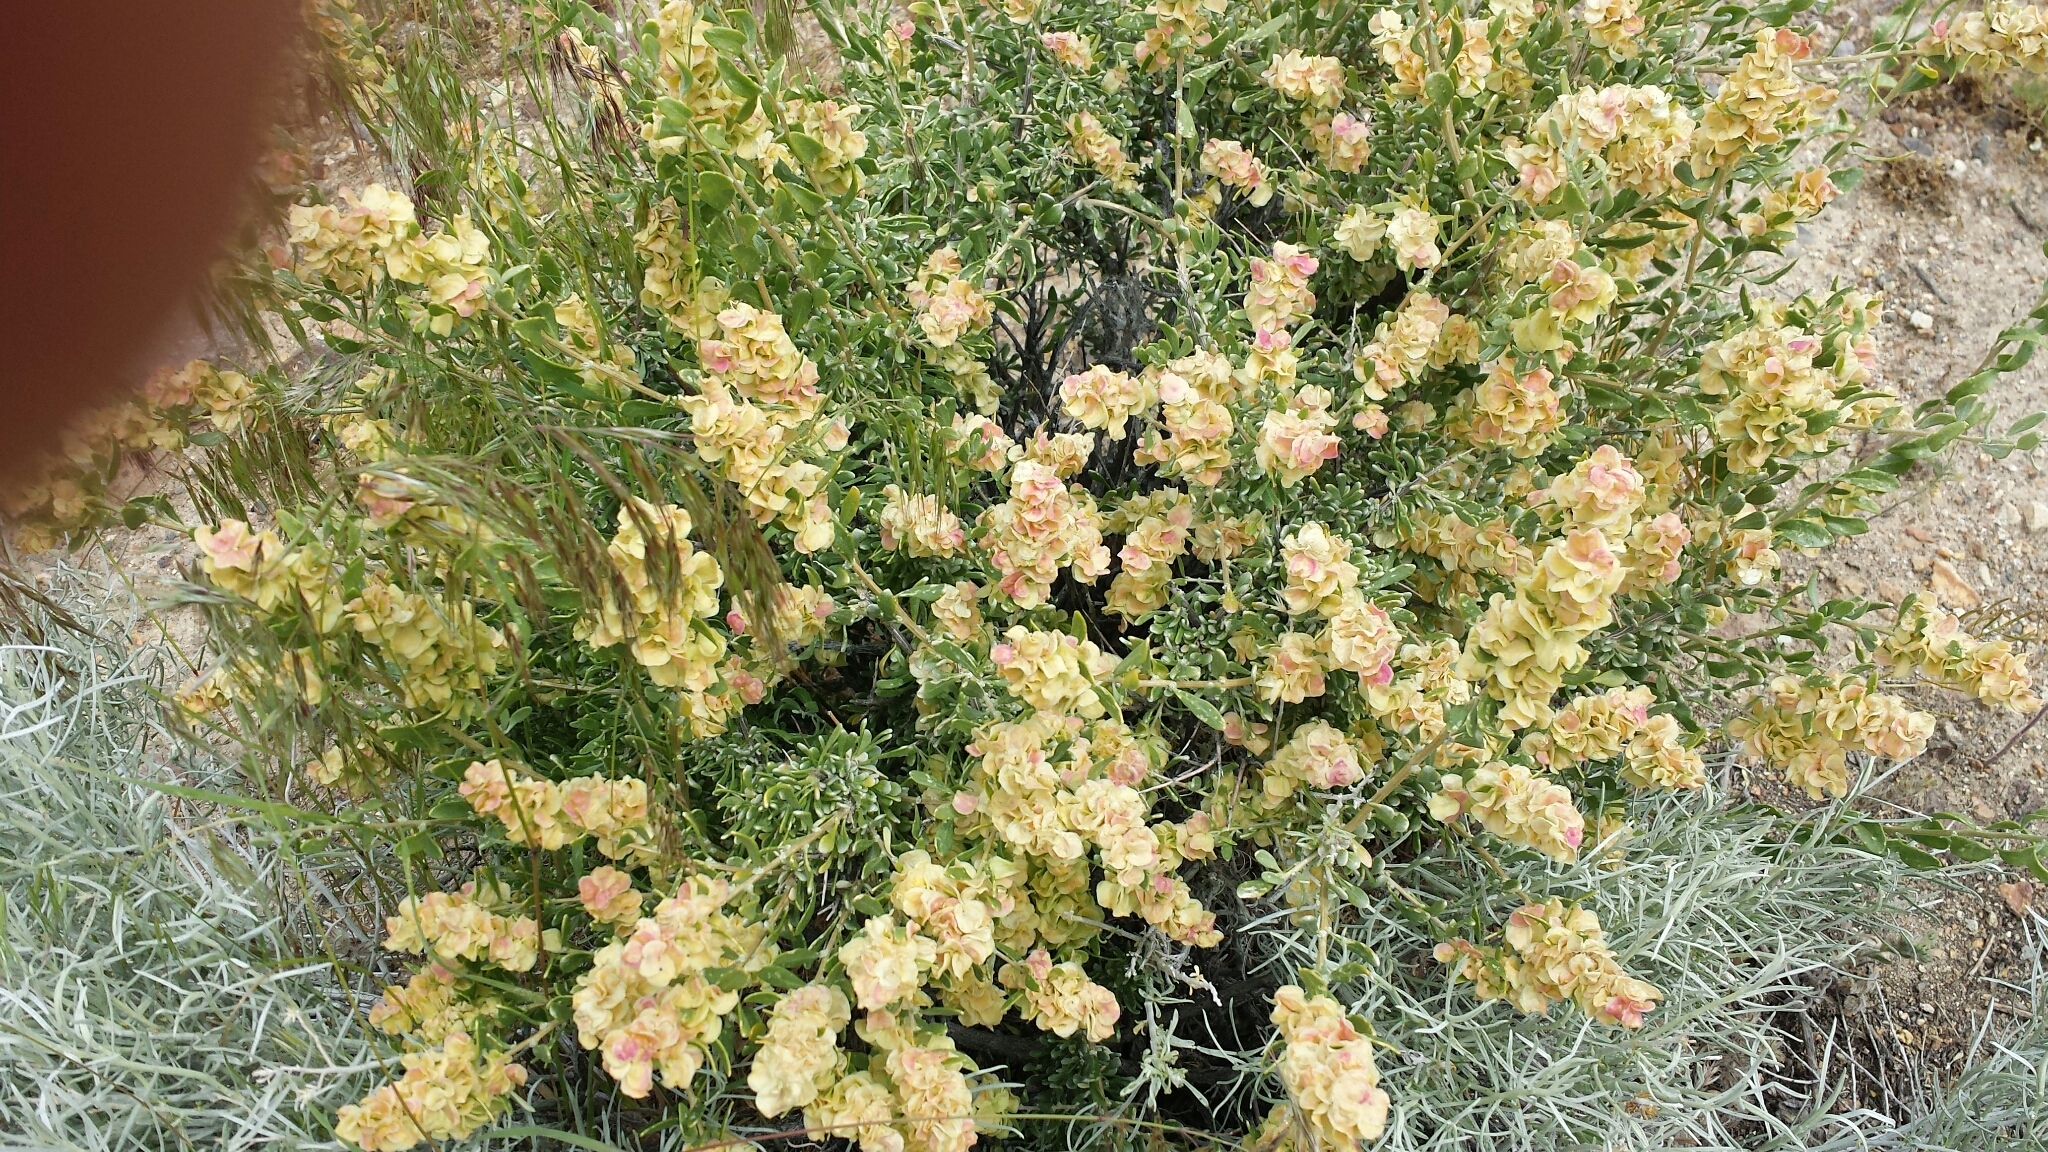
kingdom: Plantae
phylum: Tracheophyta
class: Magnoliopsida
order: Caryophyllales
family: Amaranthaceae
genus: Grayia
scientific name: Grayia spinosa
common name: Spiny hopsage
